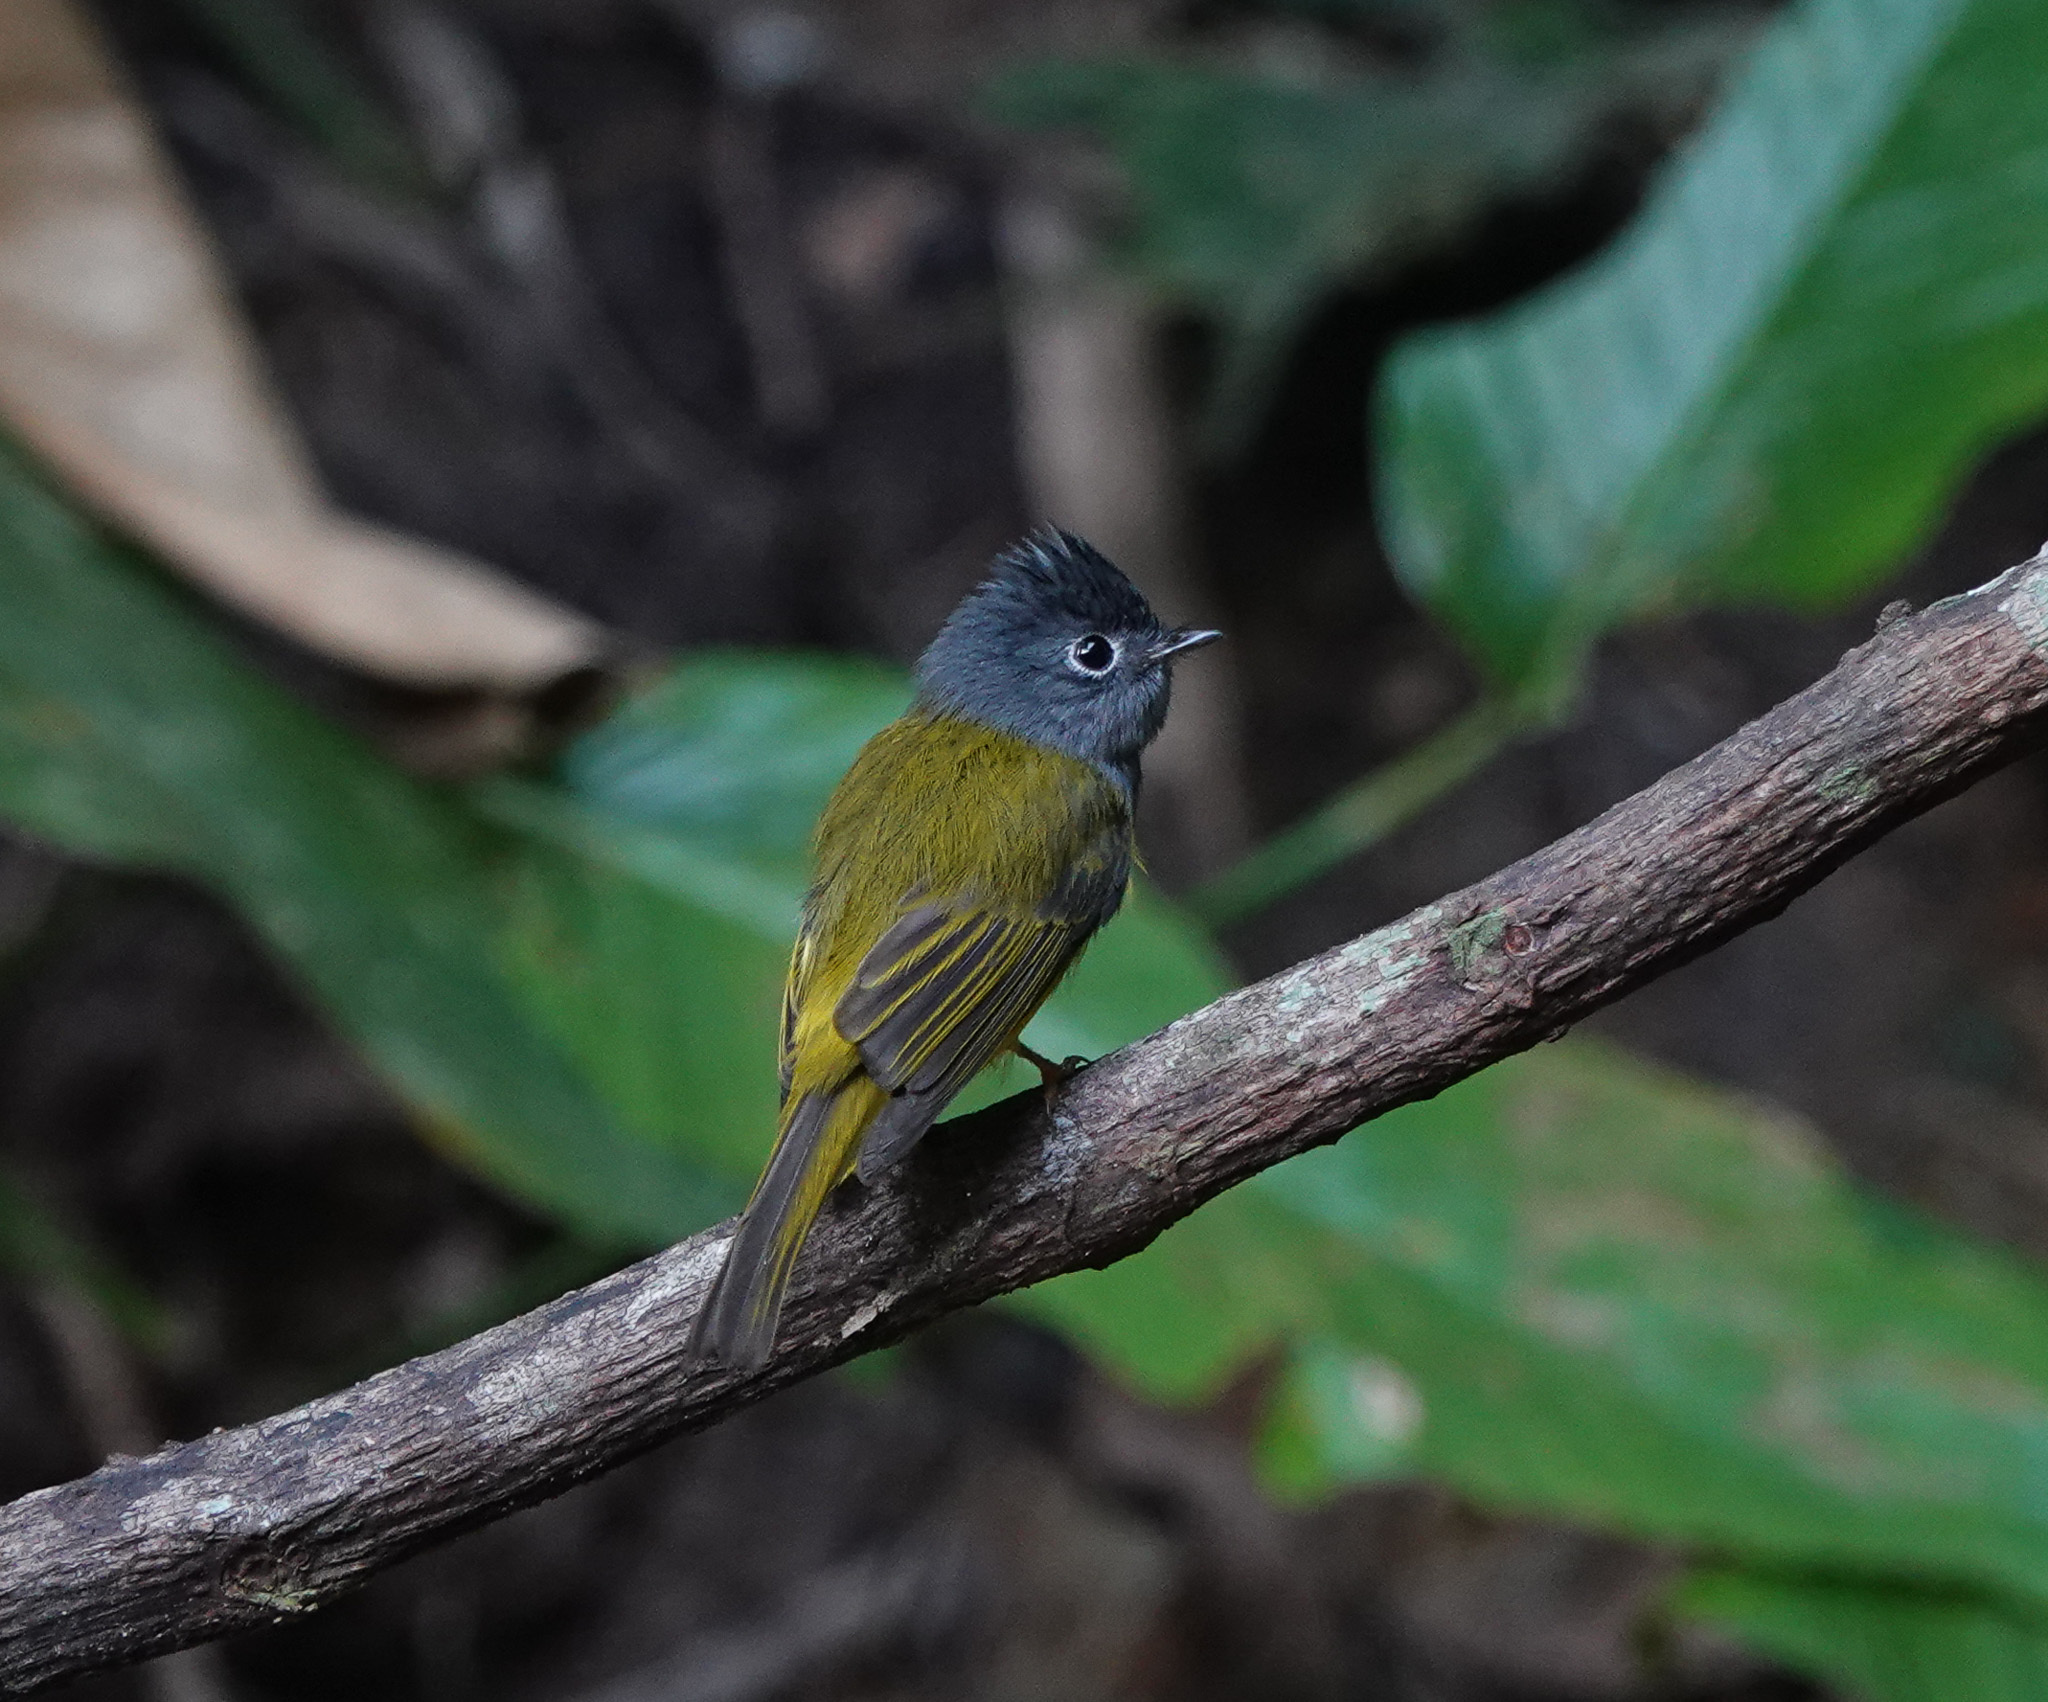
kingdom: Animalia
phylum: Chordata
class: Aves
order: Passeriformes
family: Stenostiridae
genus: Culicicapa
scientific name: Culicicapa ceylonensis
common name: Grey-headed canary-flycatcher
